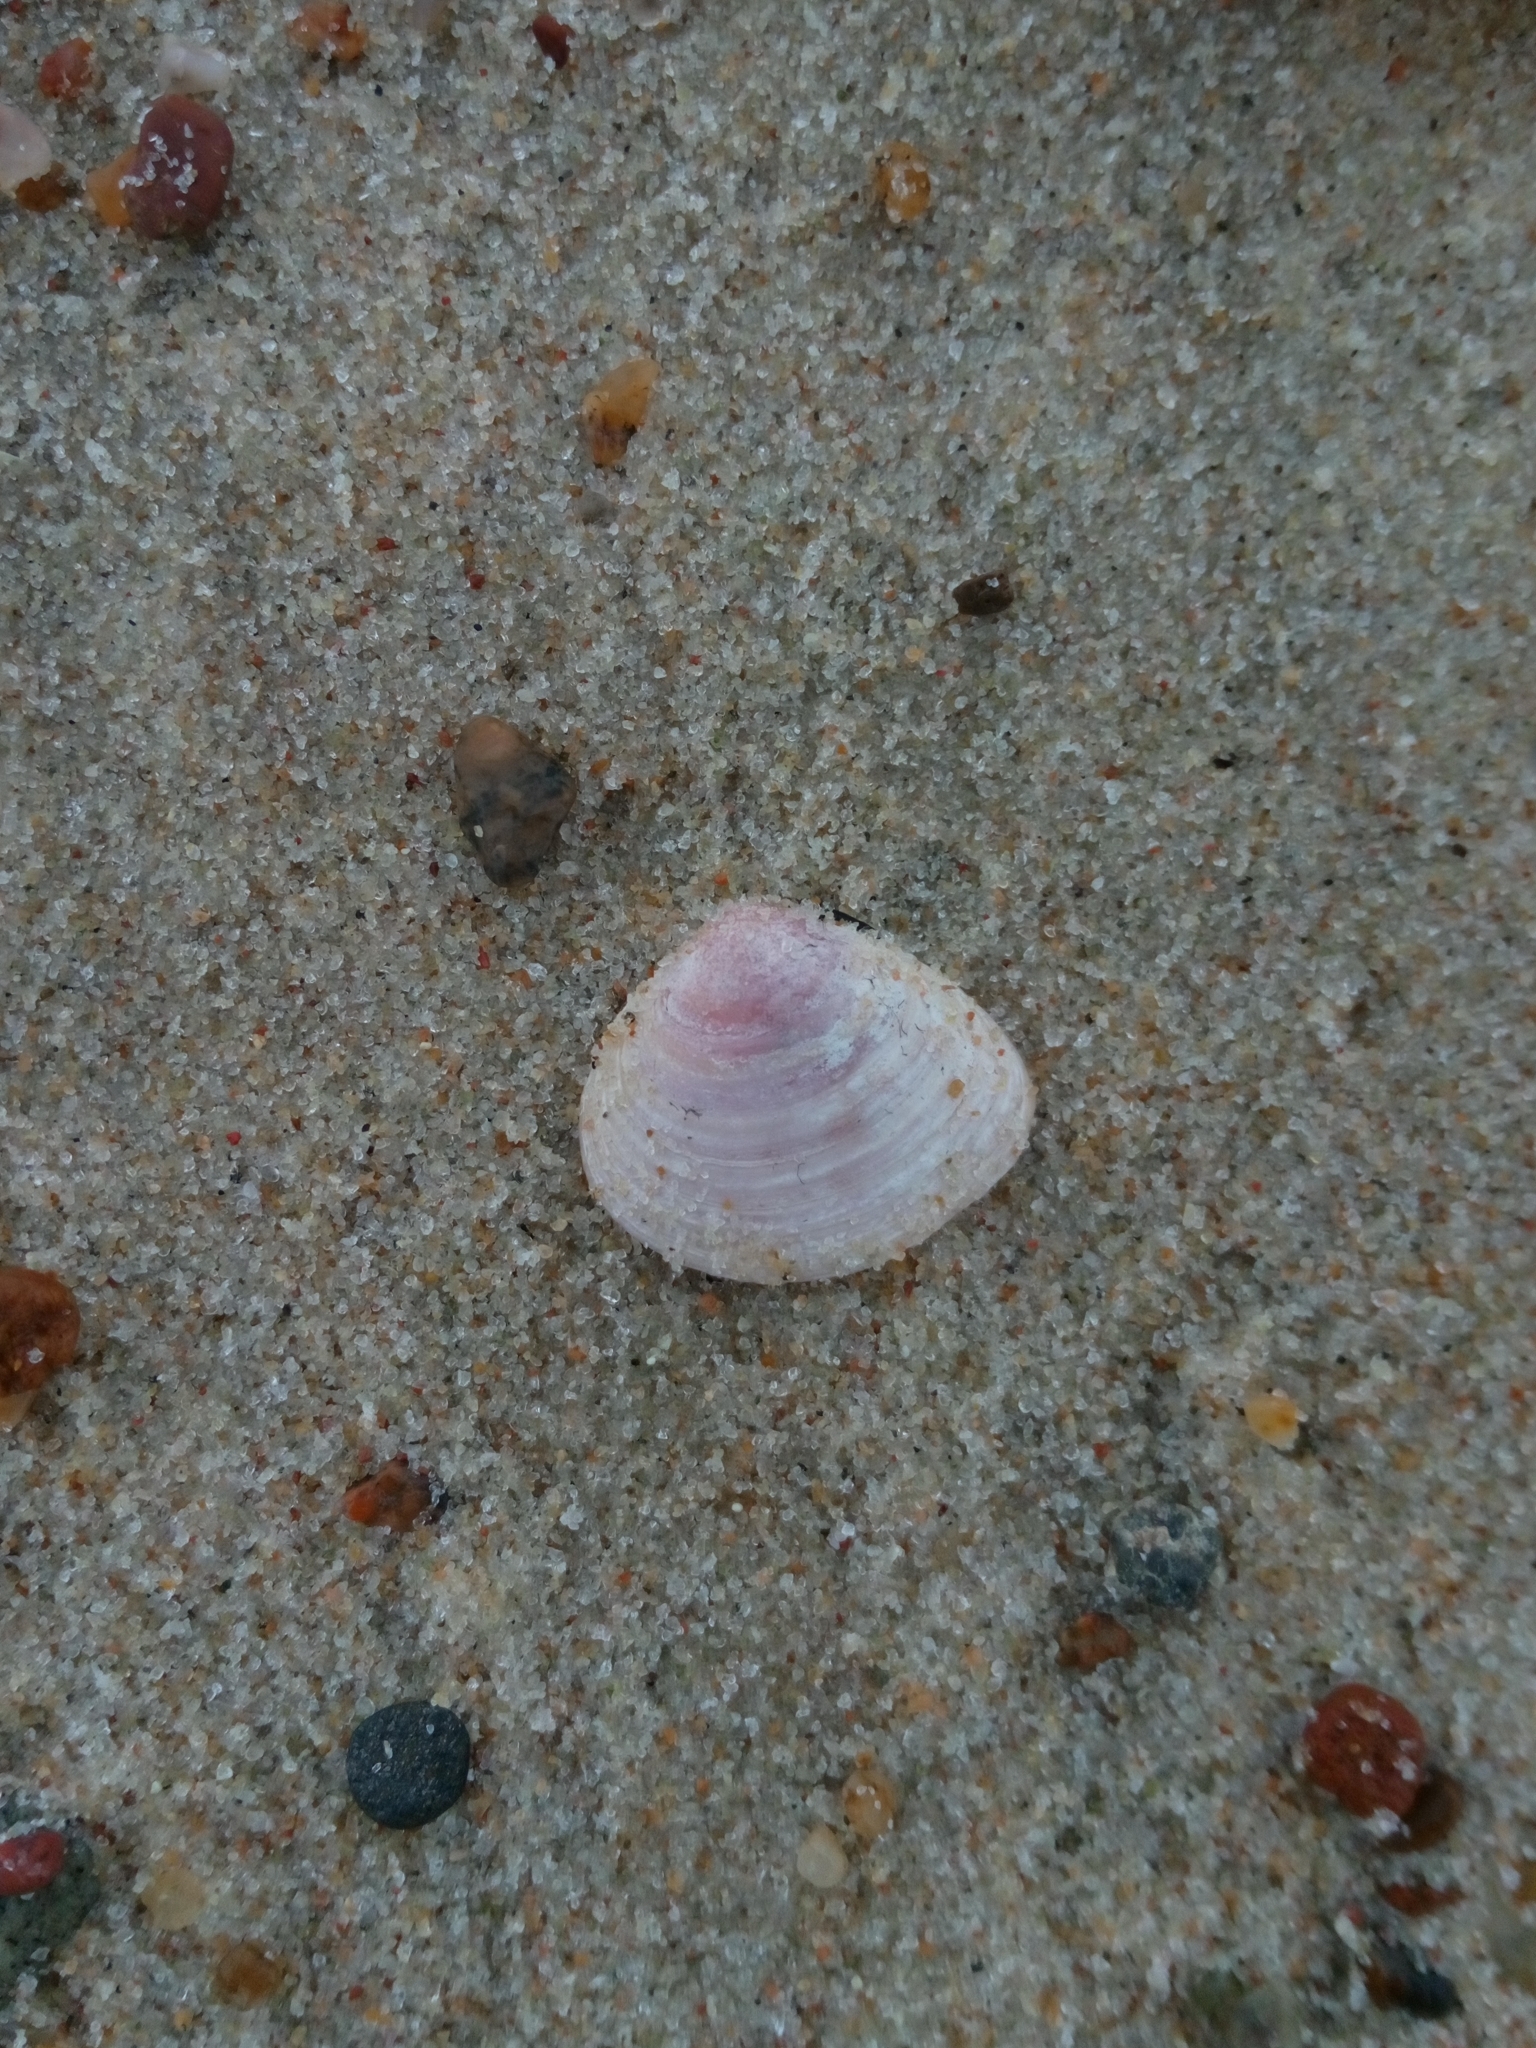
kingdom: Animalia
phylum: Mollusca
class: Bivalvia
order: Cardiida
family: Tellinidae
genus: Macoma
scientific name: Macoma balthica
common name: Baltic tellin
